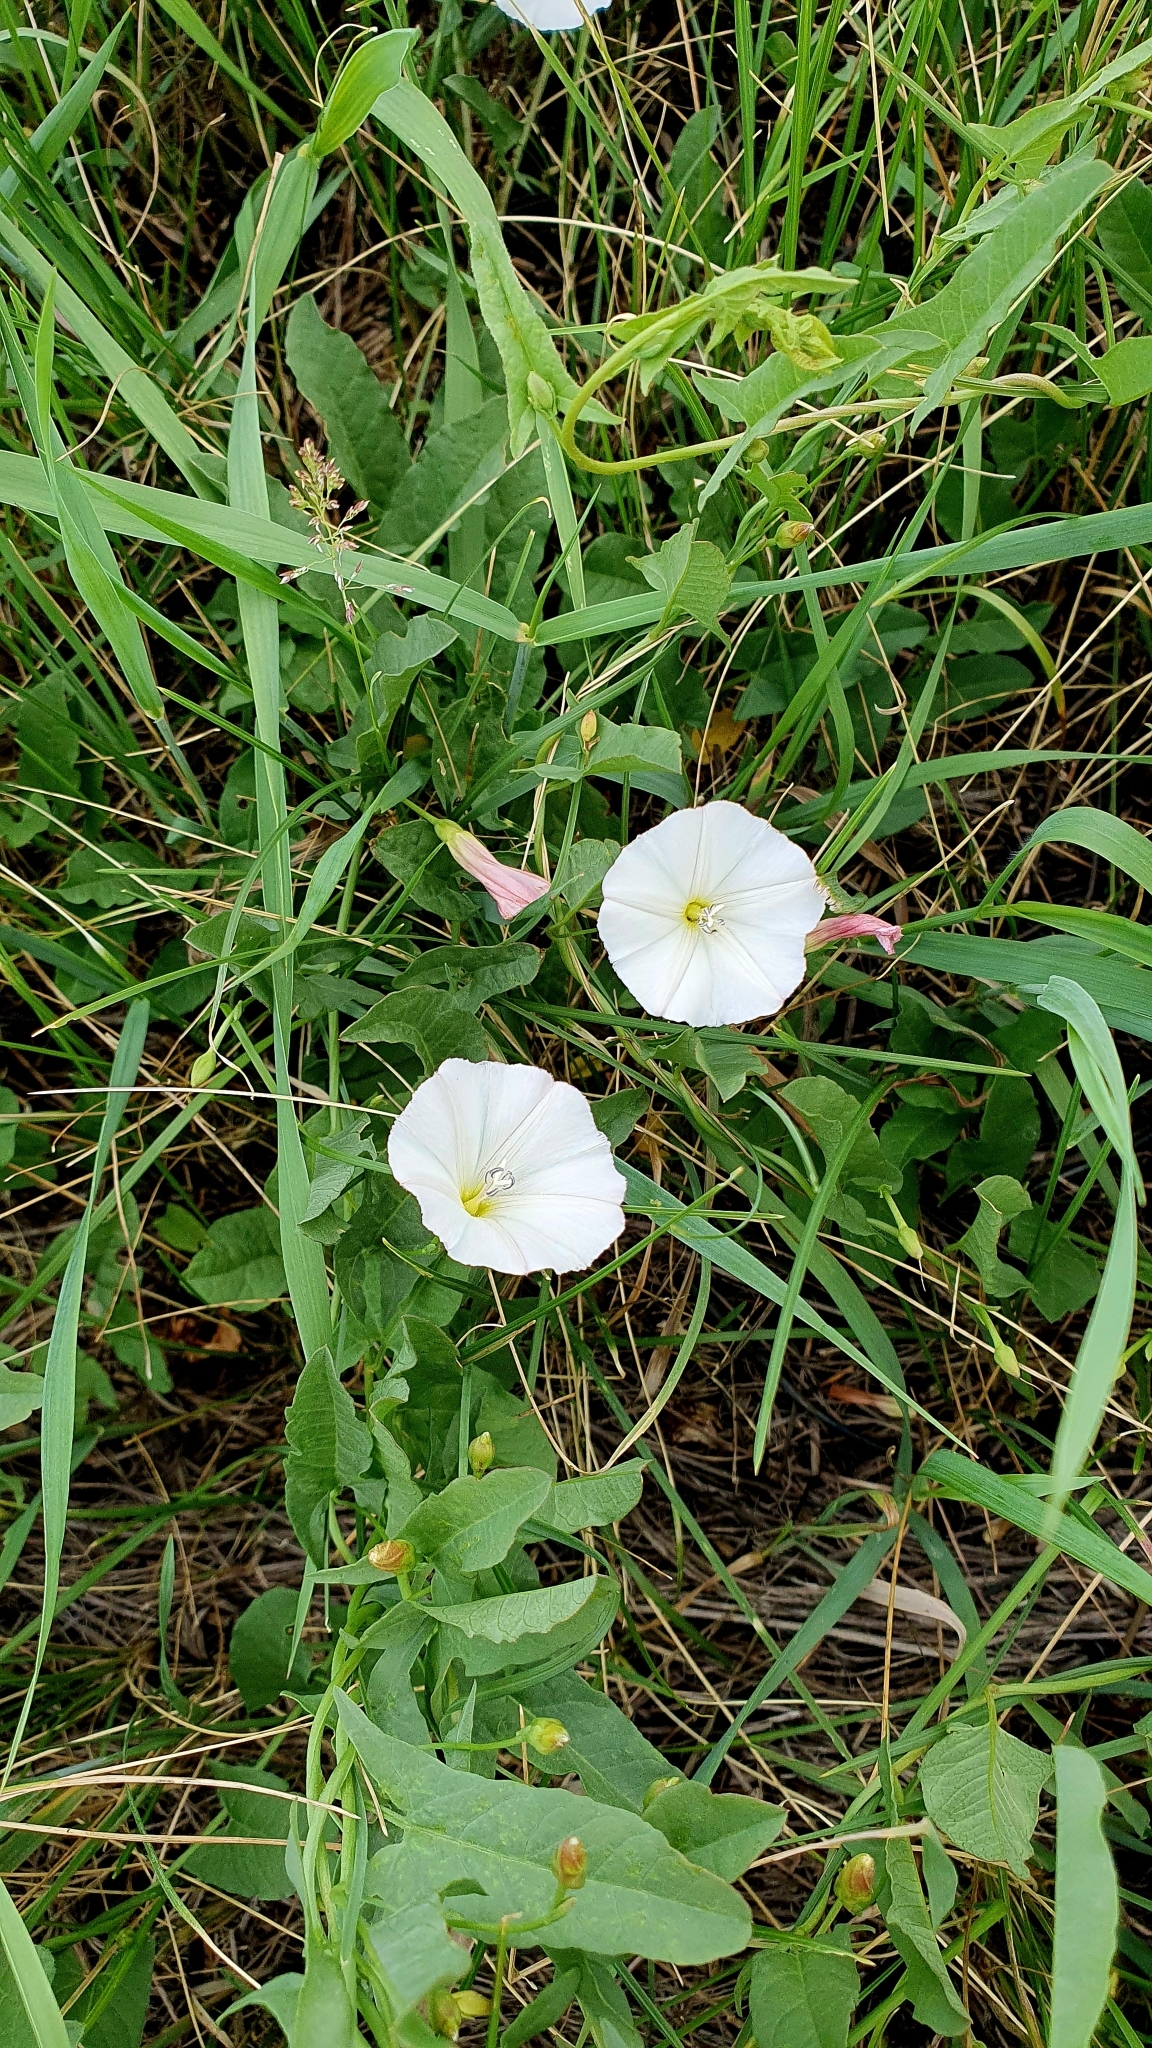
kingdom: Plantae
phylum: Tracheophyta
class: Magnoliopsida
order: Solanales
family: Convolvulaceae
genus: Convolvulus
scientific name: Convolvulus arvensis
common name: Field bindweed
